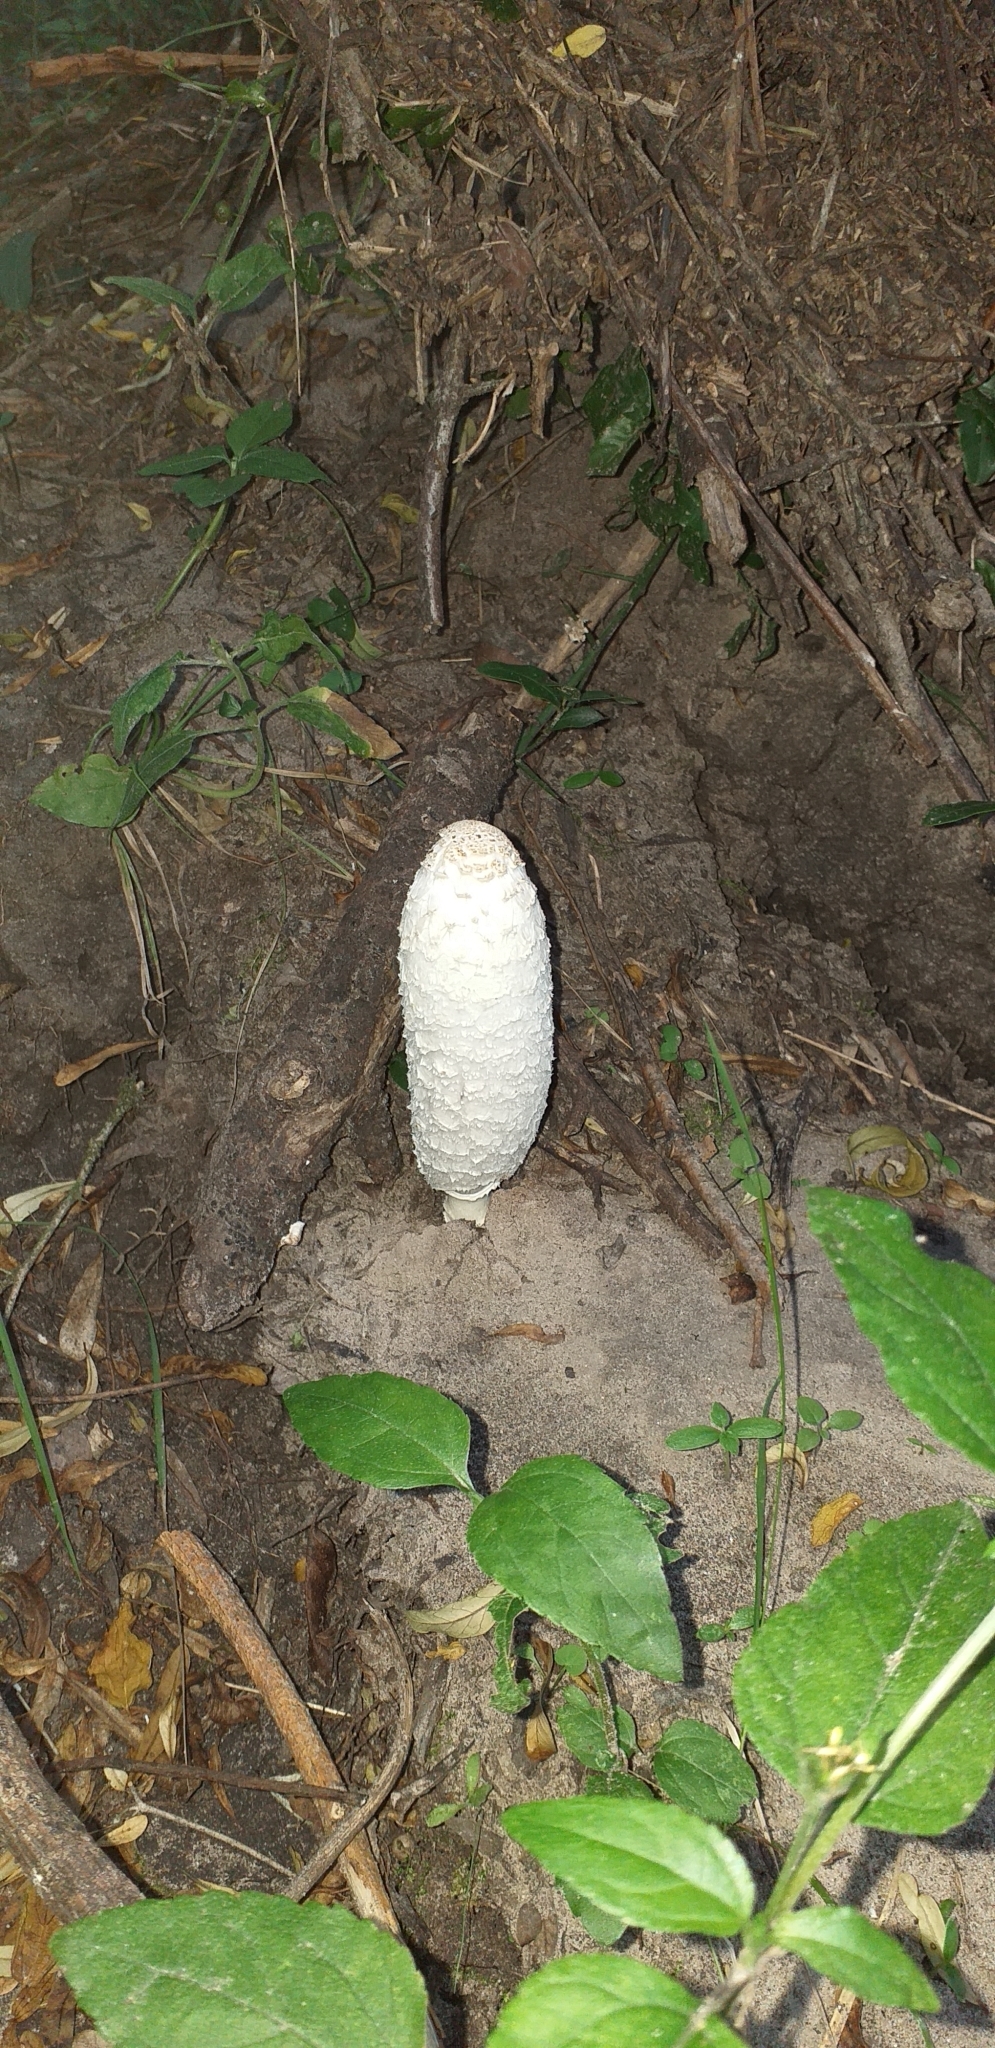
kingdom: Fungi
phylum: Basidiomycota
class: Agaricomycetes
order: Agaricales
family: Agaricaceae
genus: Coprinus
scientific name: Coprinus comatus
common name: Lawyer's wig
